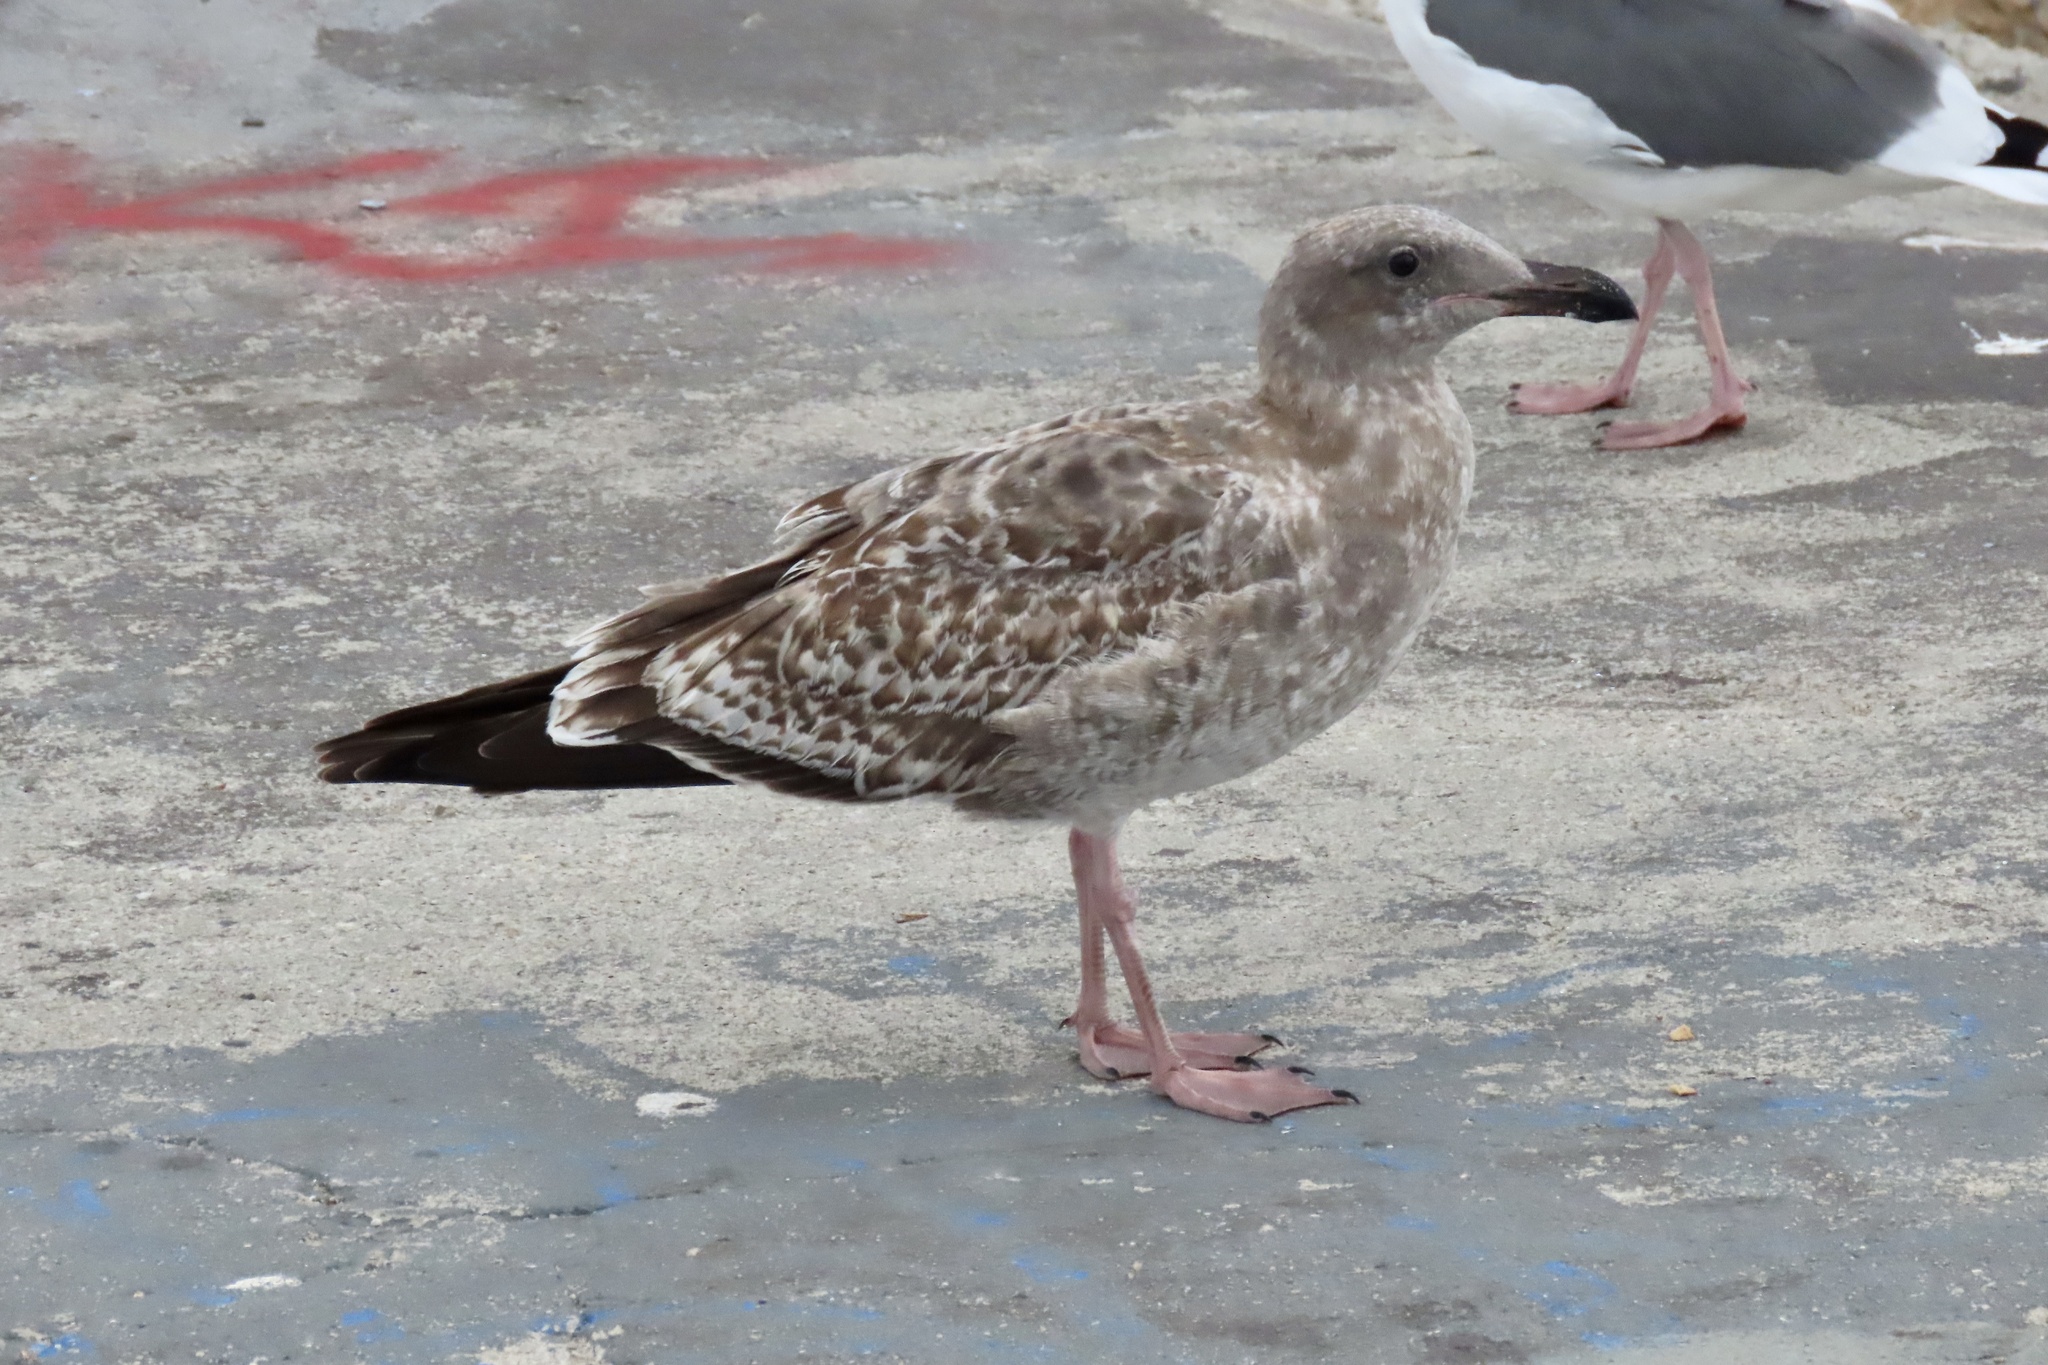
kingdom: Animalia
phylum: Chordata
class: Aves
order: Charadriiformes
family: Laridae
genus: Larus
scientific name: Larus occidentalis
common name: Western gull
